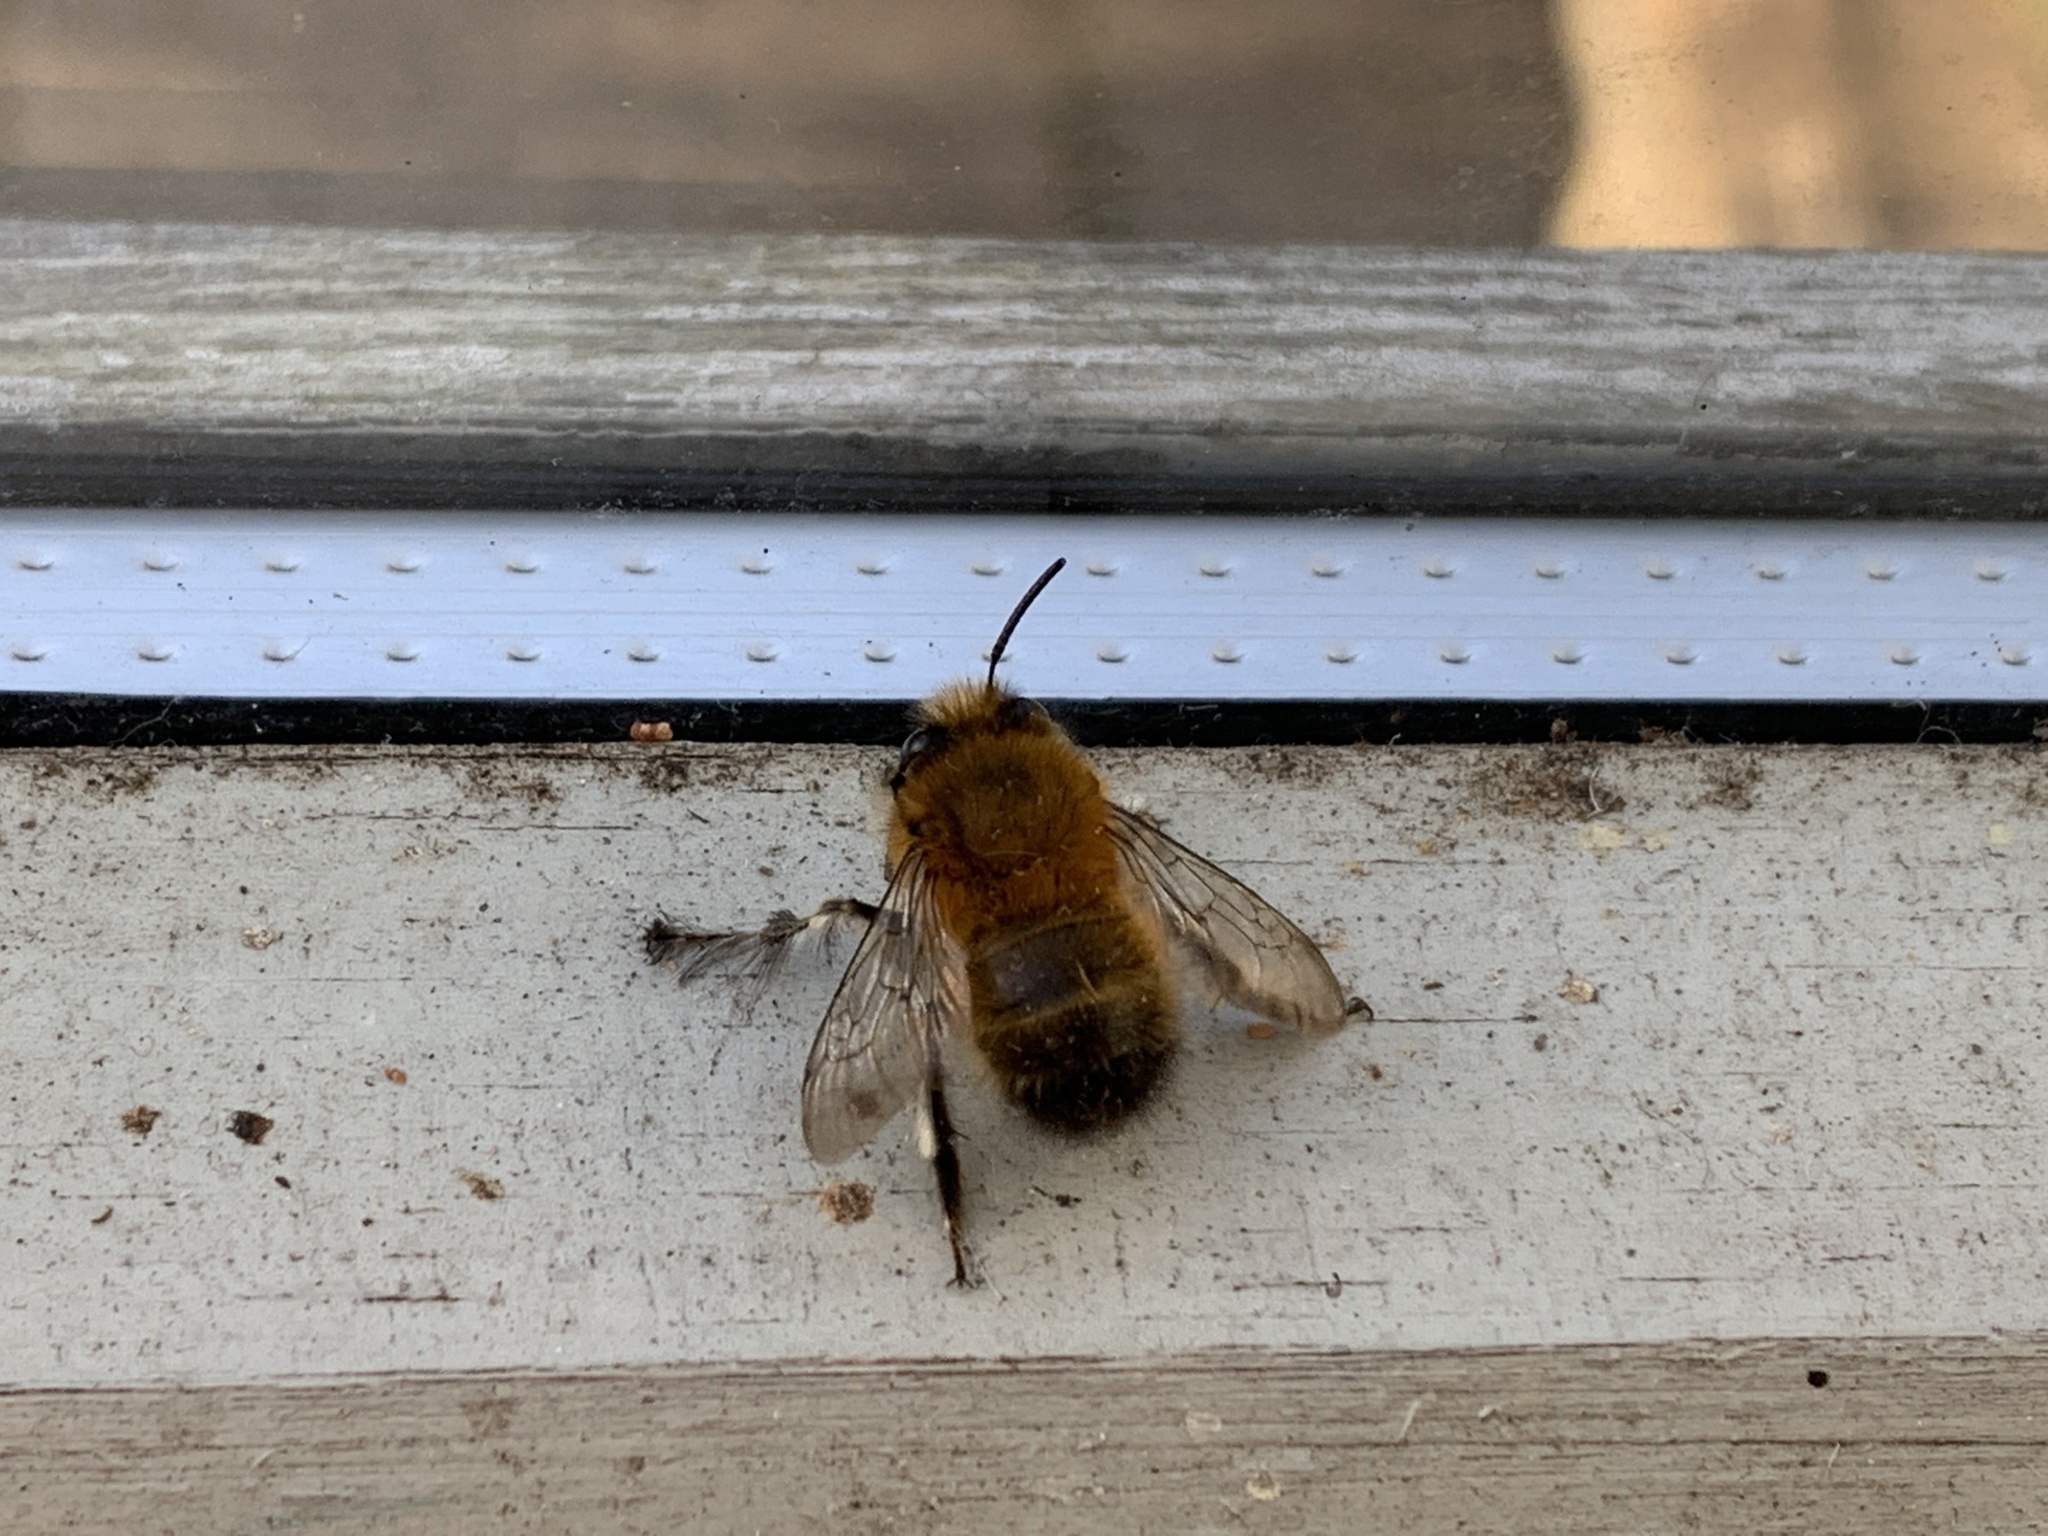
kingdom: Animalia
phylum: Arthropoda
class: Insecta
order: Hymenoptera
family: Apidae
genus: Anthophora
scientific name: Anthophora plumipes
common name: Hairy-footed flower bee
